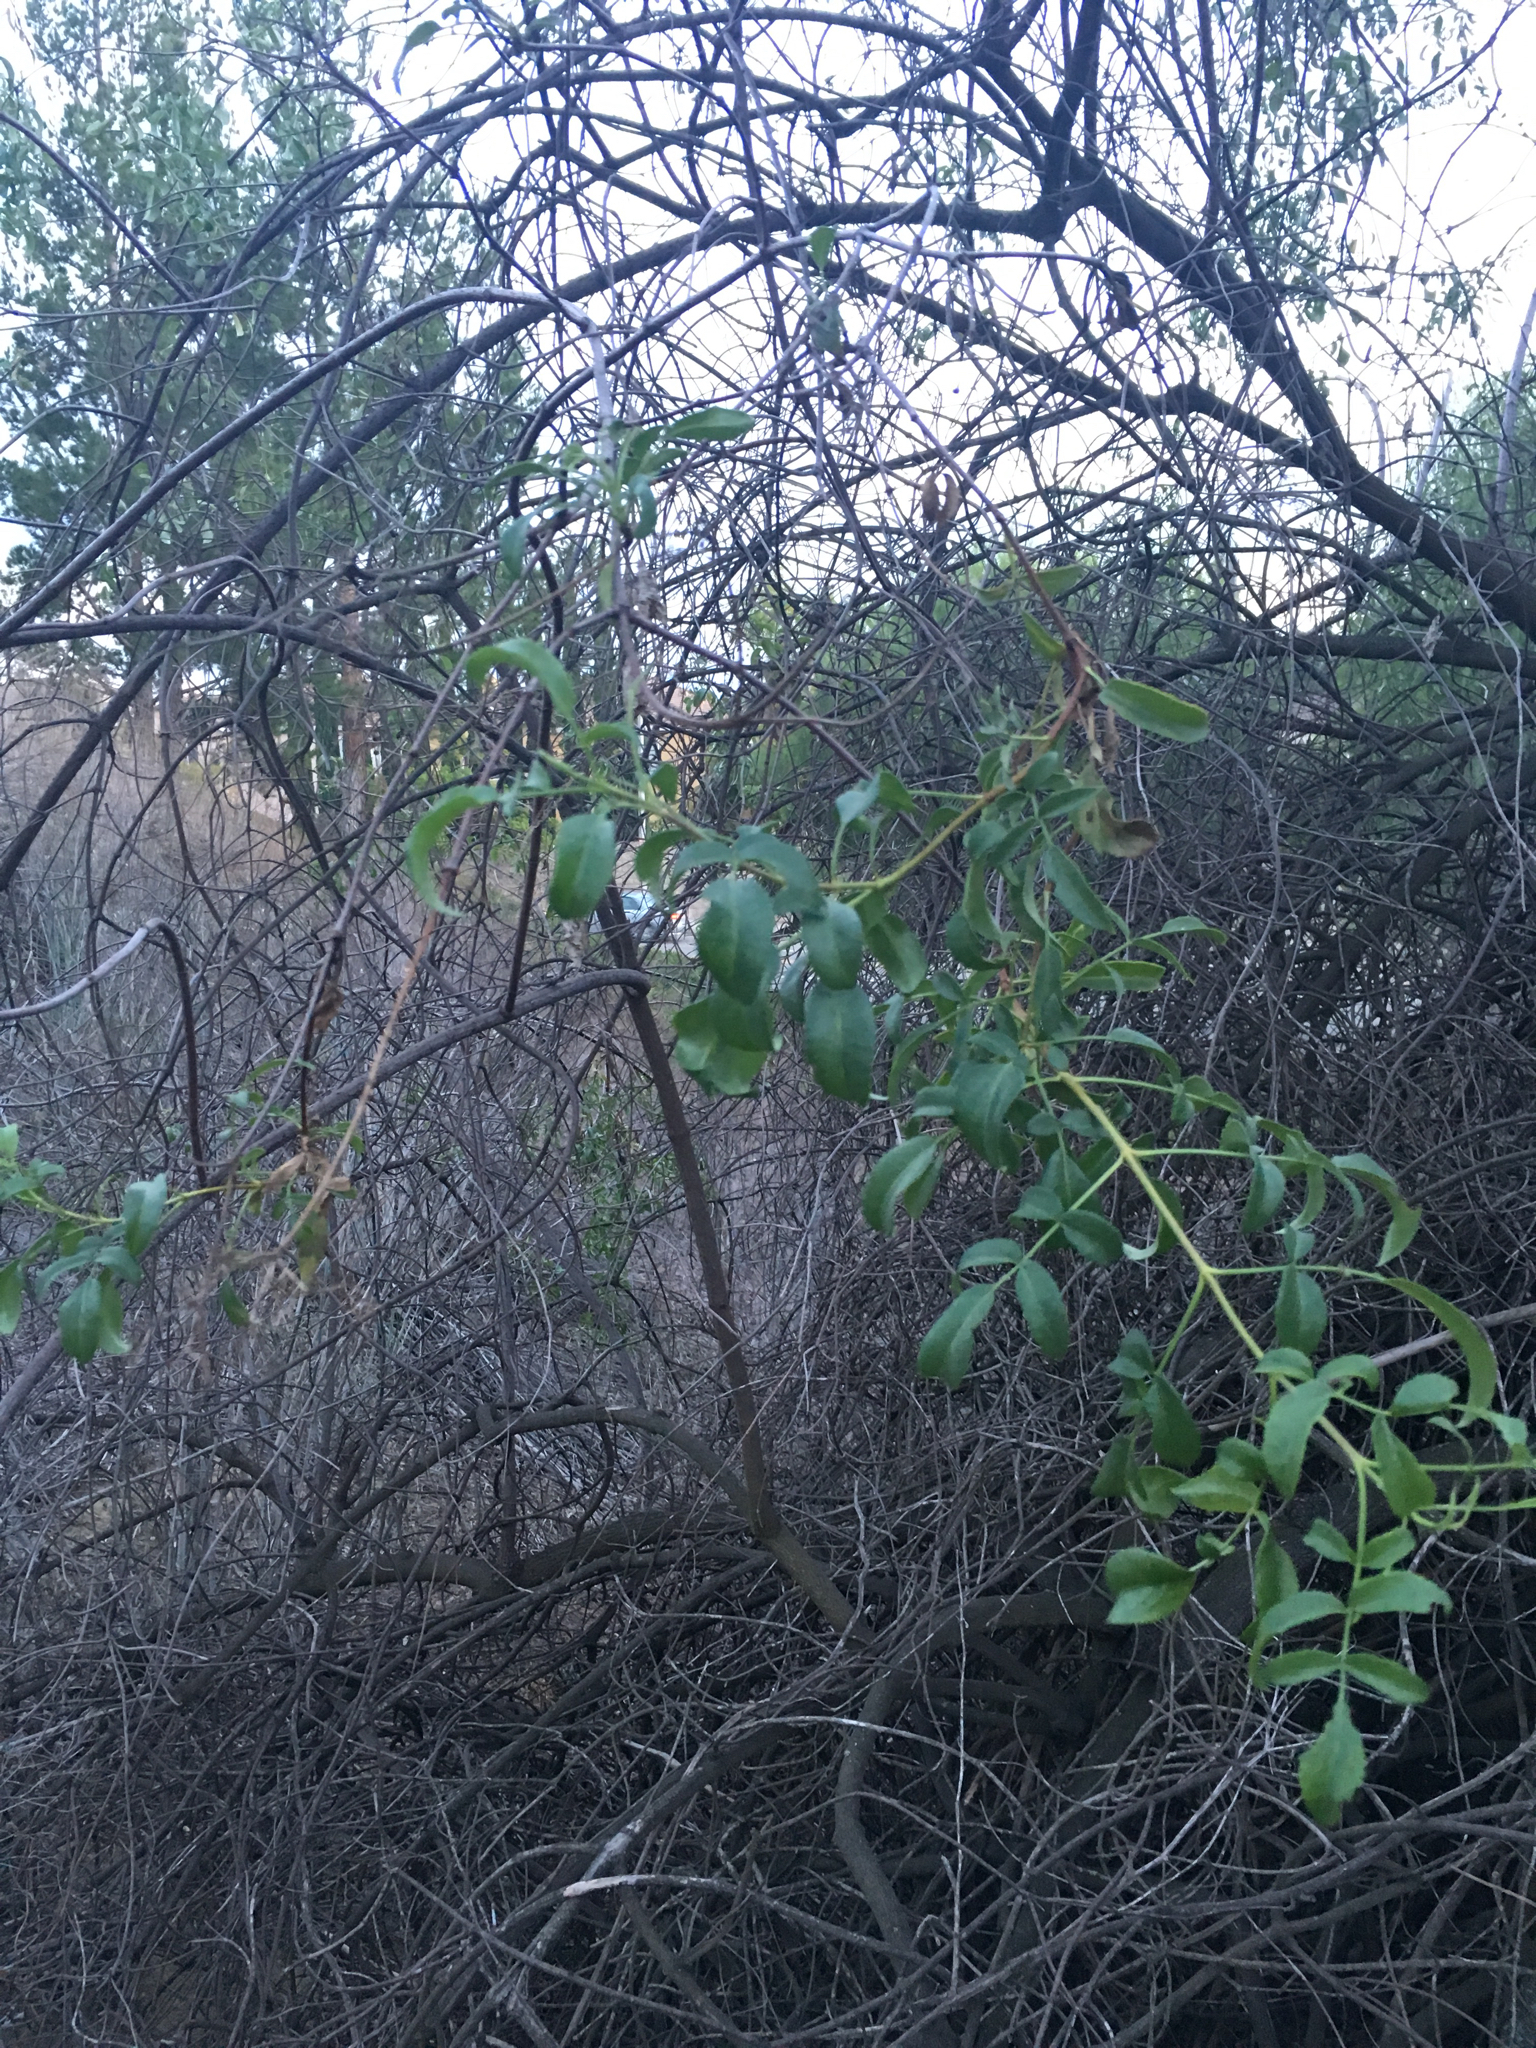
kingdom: Plantae
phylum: Tracheophyta
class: Magnoliopsida
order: Dipsacales
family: Viburnaceae
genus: Sambucus
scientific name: Sambucus cerulea
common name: Blue elder
